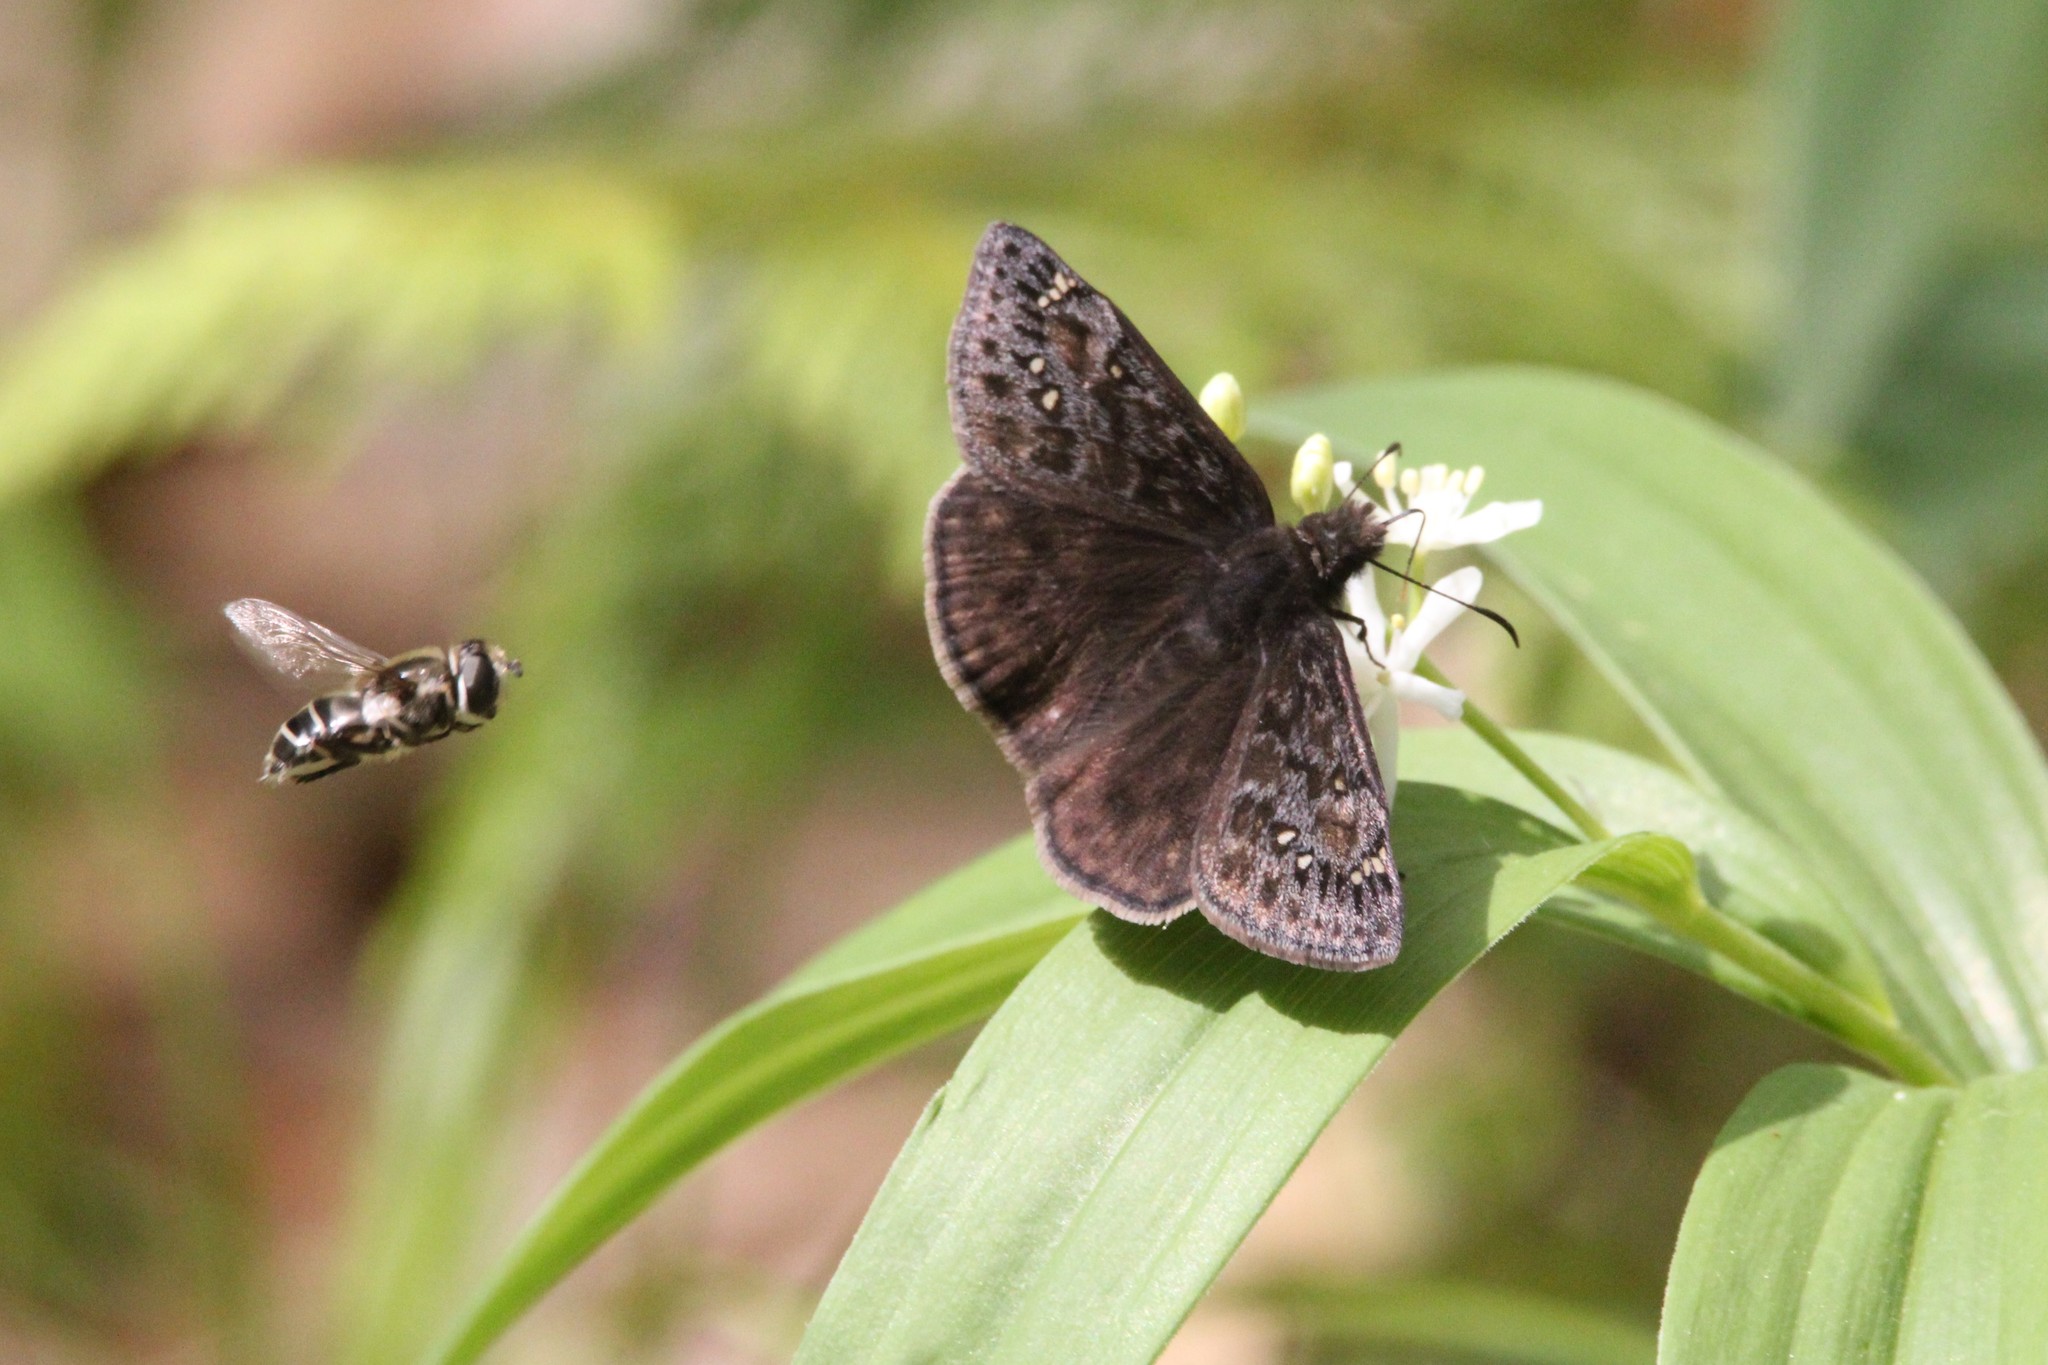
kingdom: Animalia
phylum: Arthropoda
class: Insecta
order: Lepidoptera
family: Hesperiidae
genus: Erynnis
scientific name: Erynnis juvenalis
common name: Juvenal's duskywing
